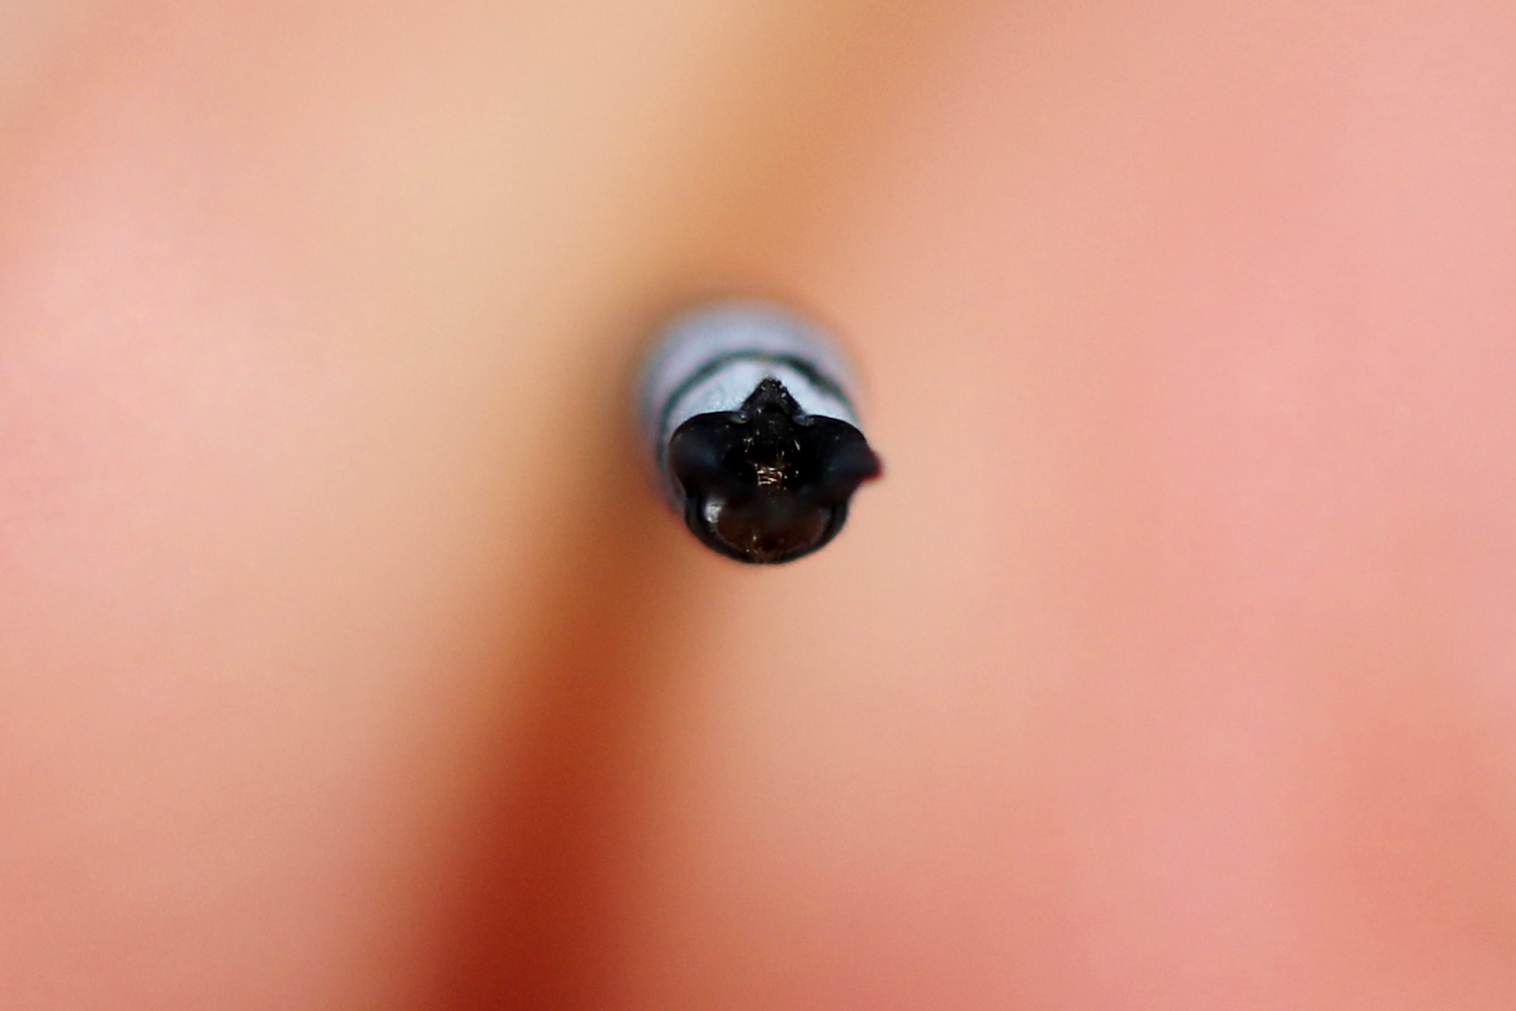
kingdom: Animalia
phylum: Arthropoda
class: Insecta
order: Odonata
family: Lestidae
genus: Lestes
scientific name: Lestes disjunctus
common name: Northern spreadwing
